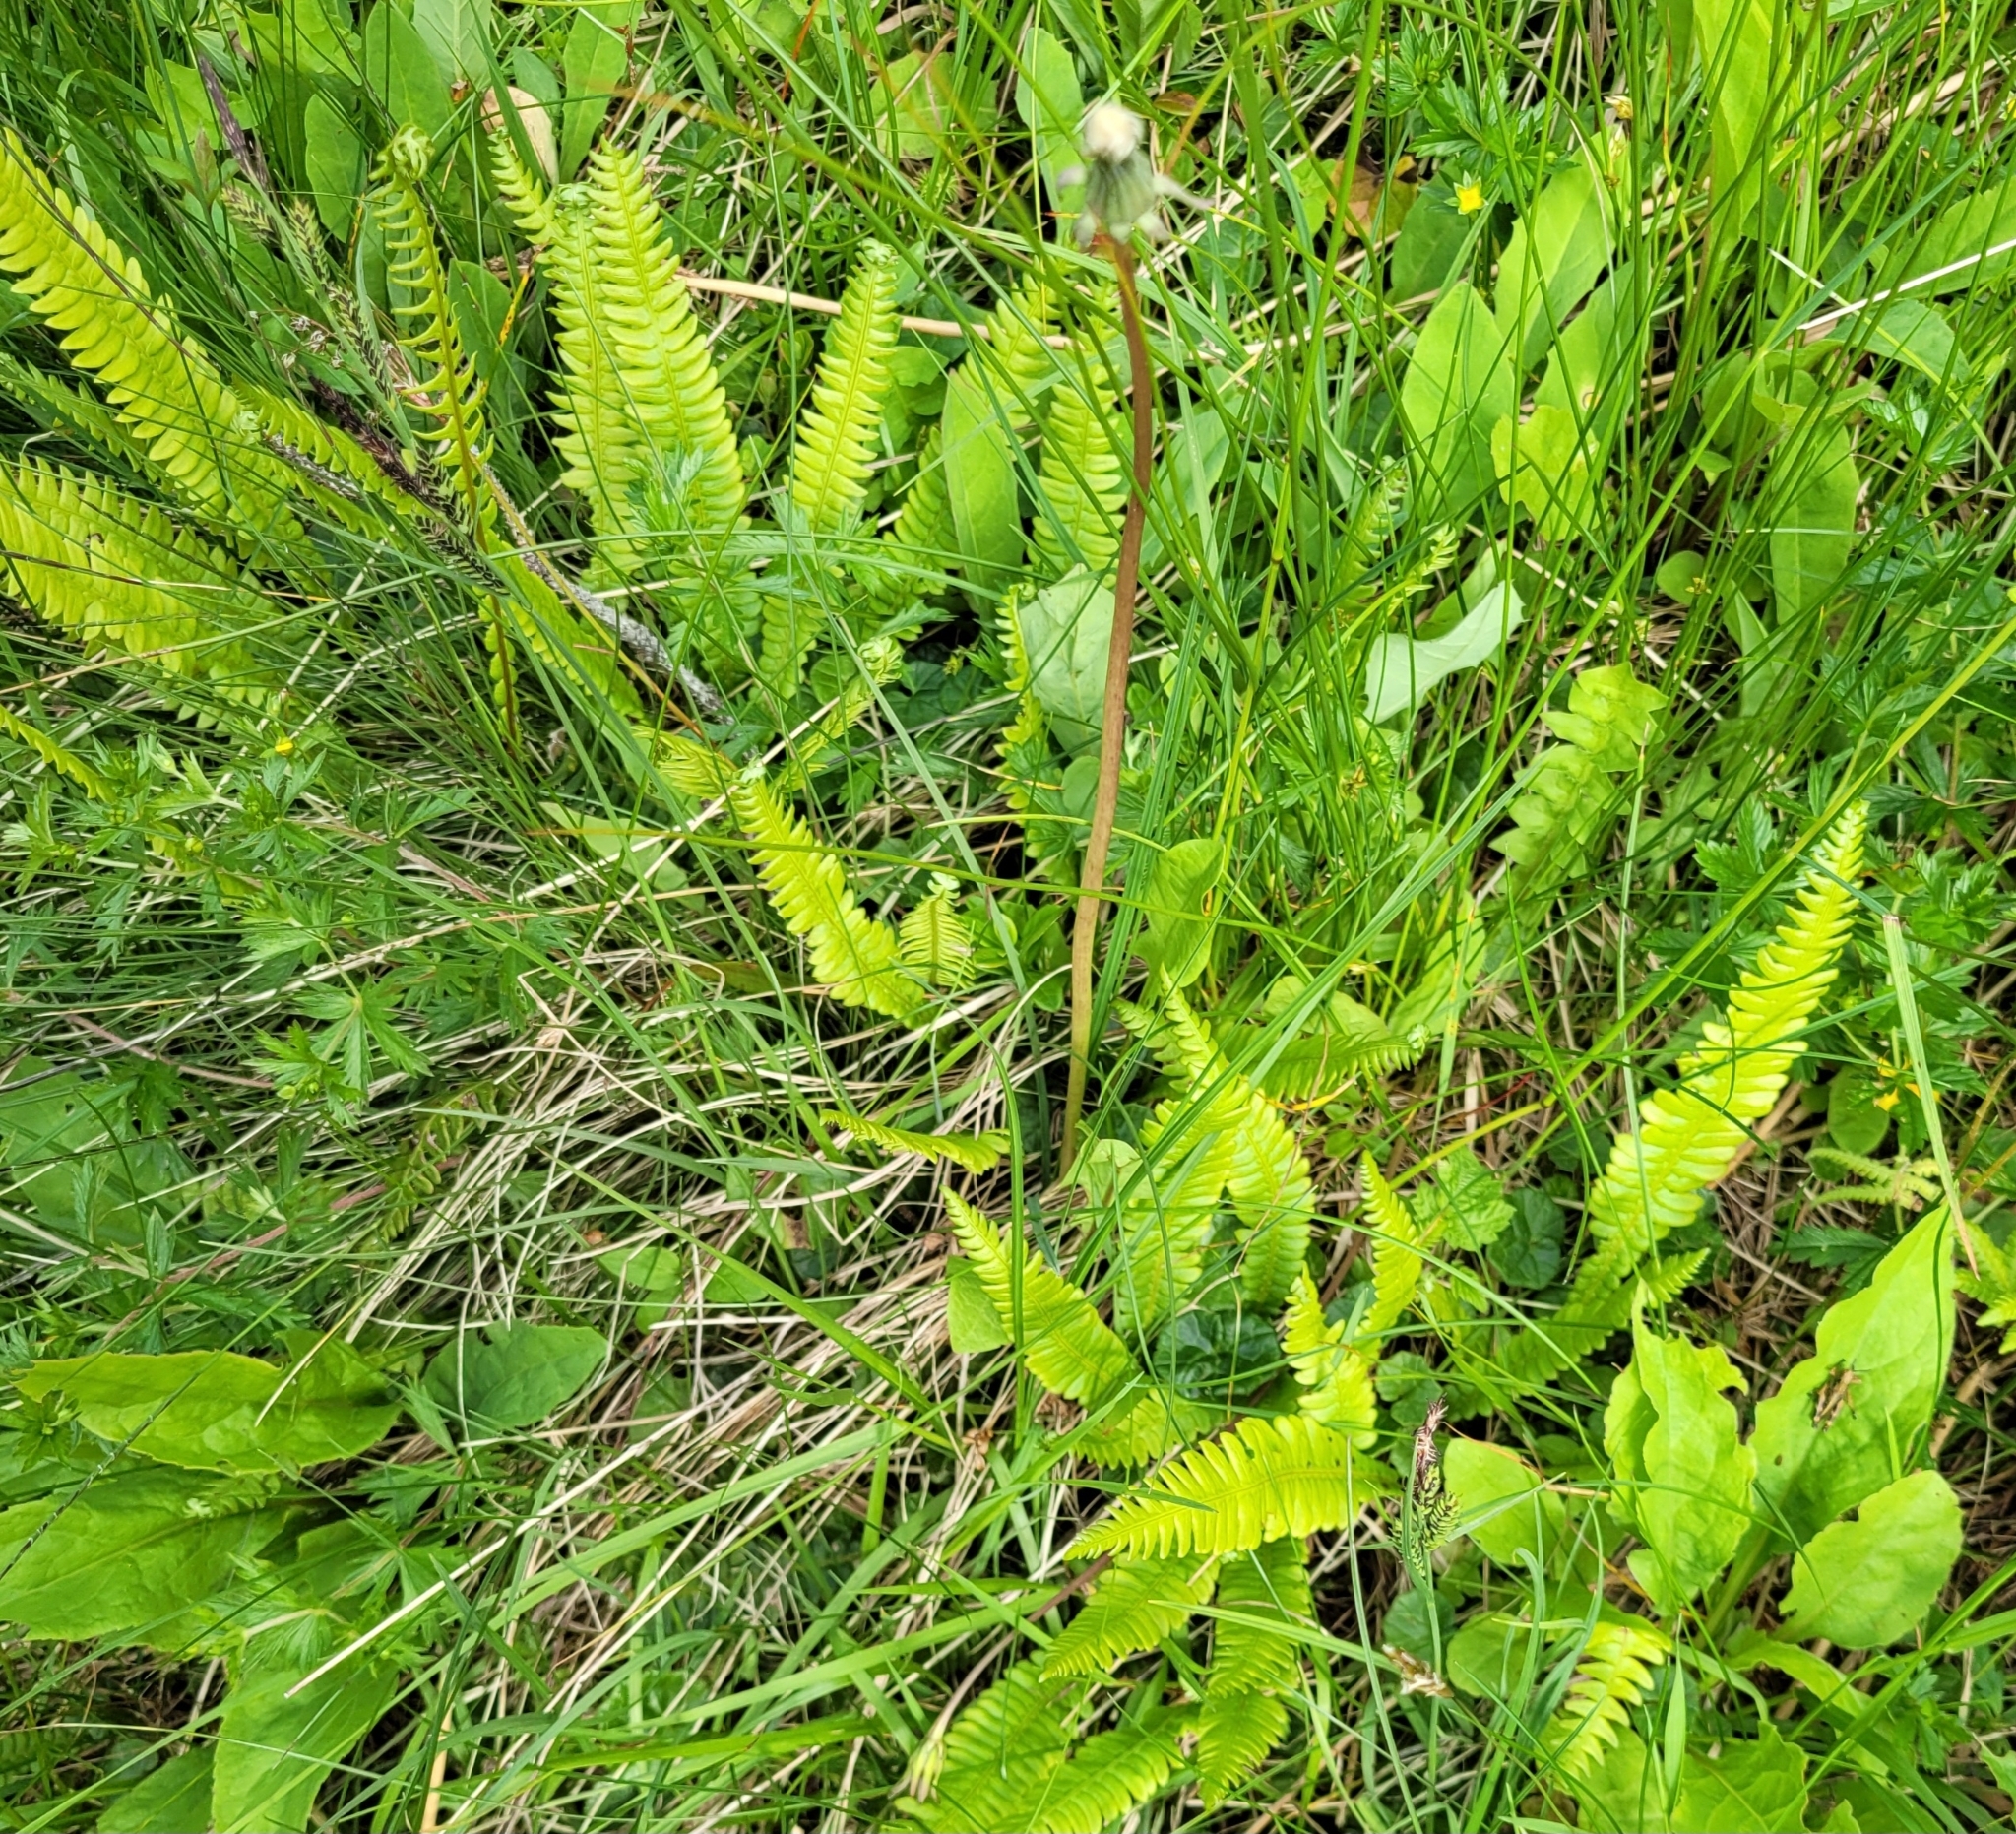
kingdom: Plantae
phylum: Tracheophyta
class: Polypodiopsida
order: Polypodiales
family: Blechnaceae
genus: Struthiopteris
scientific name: Struthiopteris spicant
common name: Deer fern
